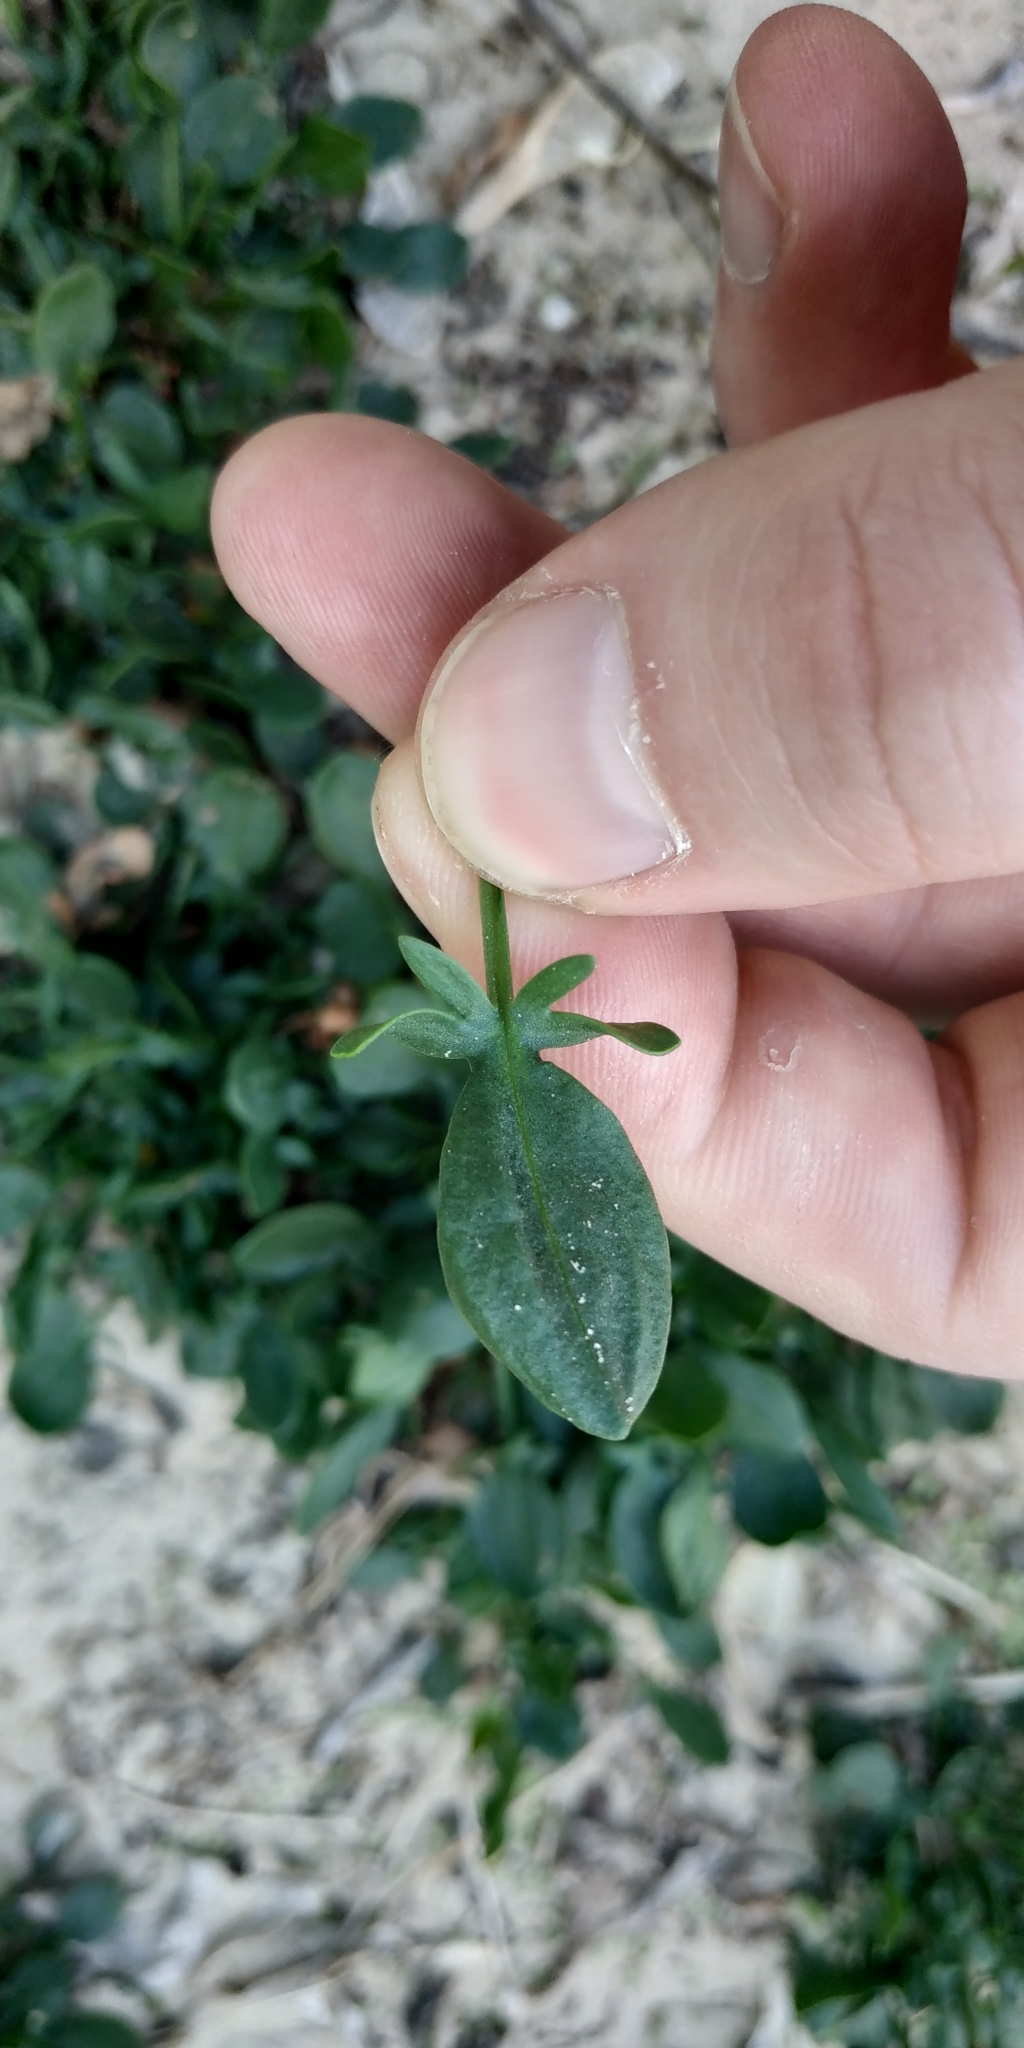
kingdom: Plantae
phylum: Tracheophyta
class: Magnoliopsida
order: Caryophyllales
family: Polygonaceae
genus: Rumex
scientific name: Rumex acetosella
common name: Common sheep sorrel
